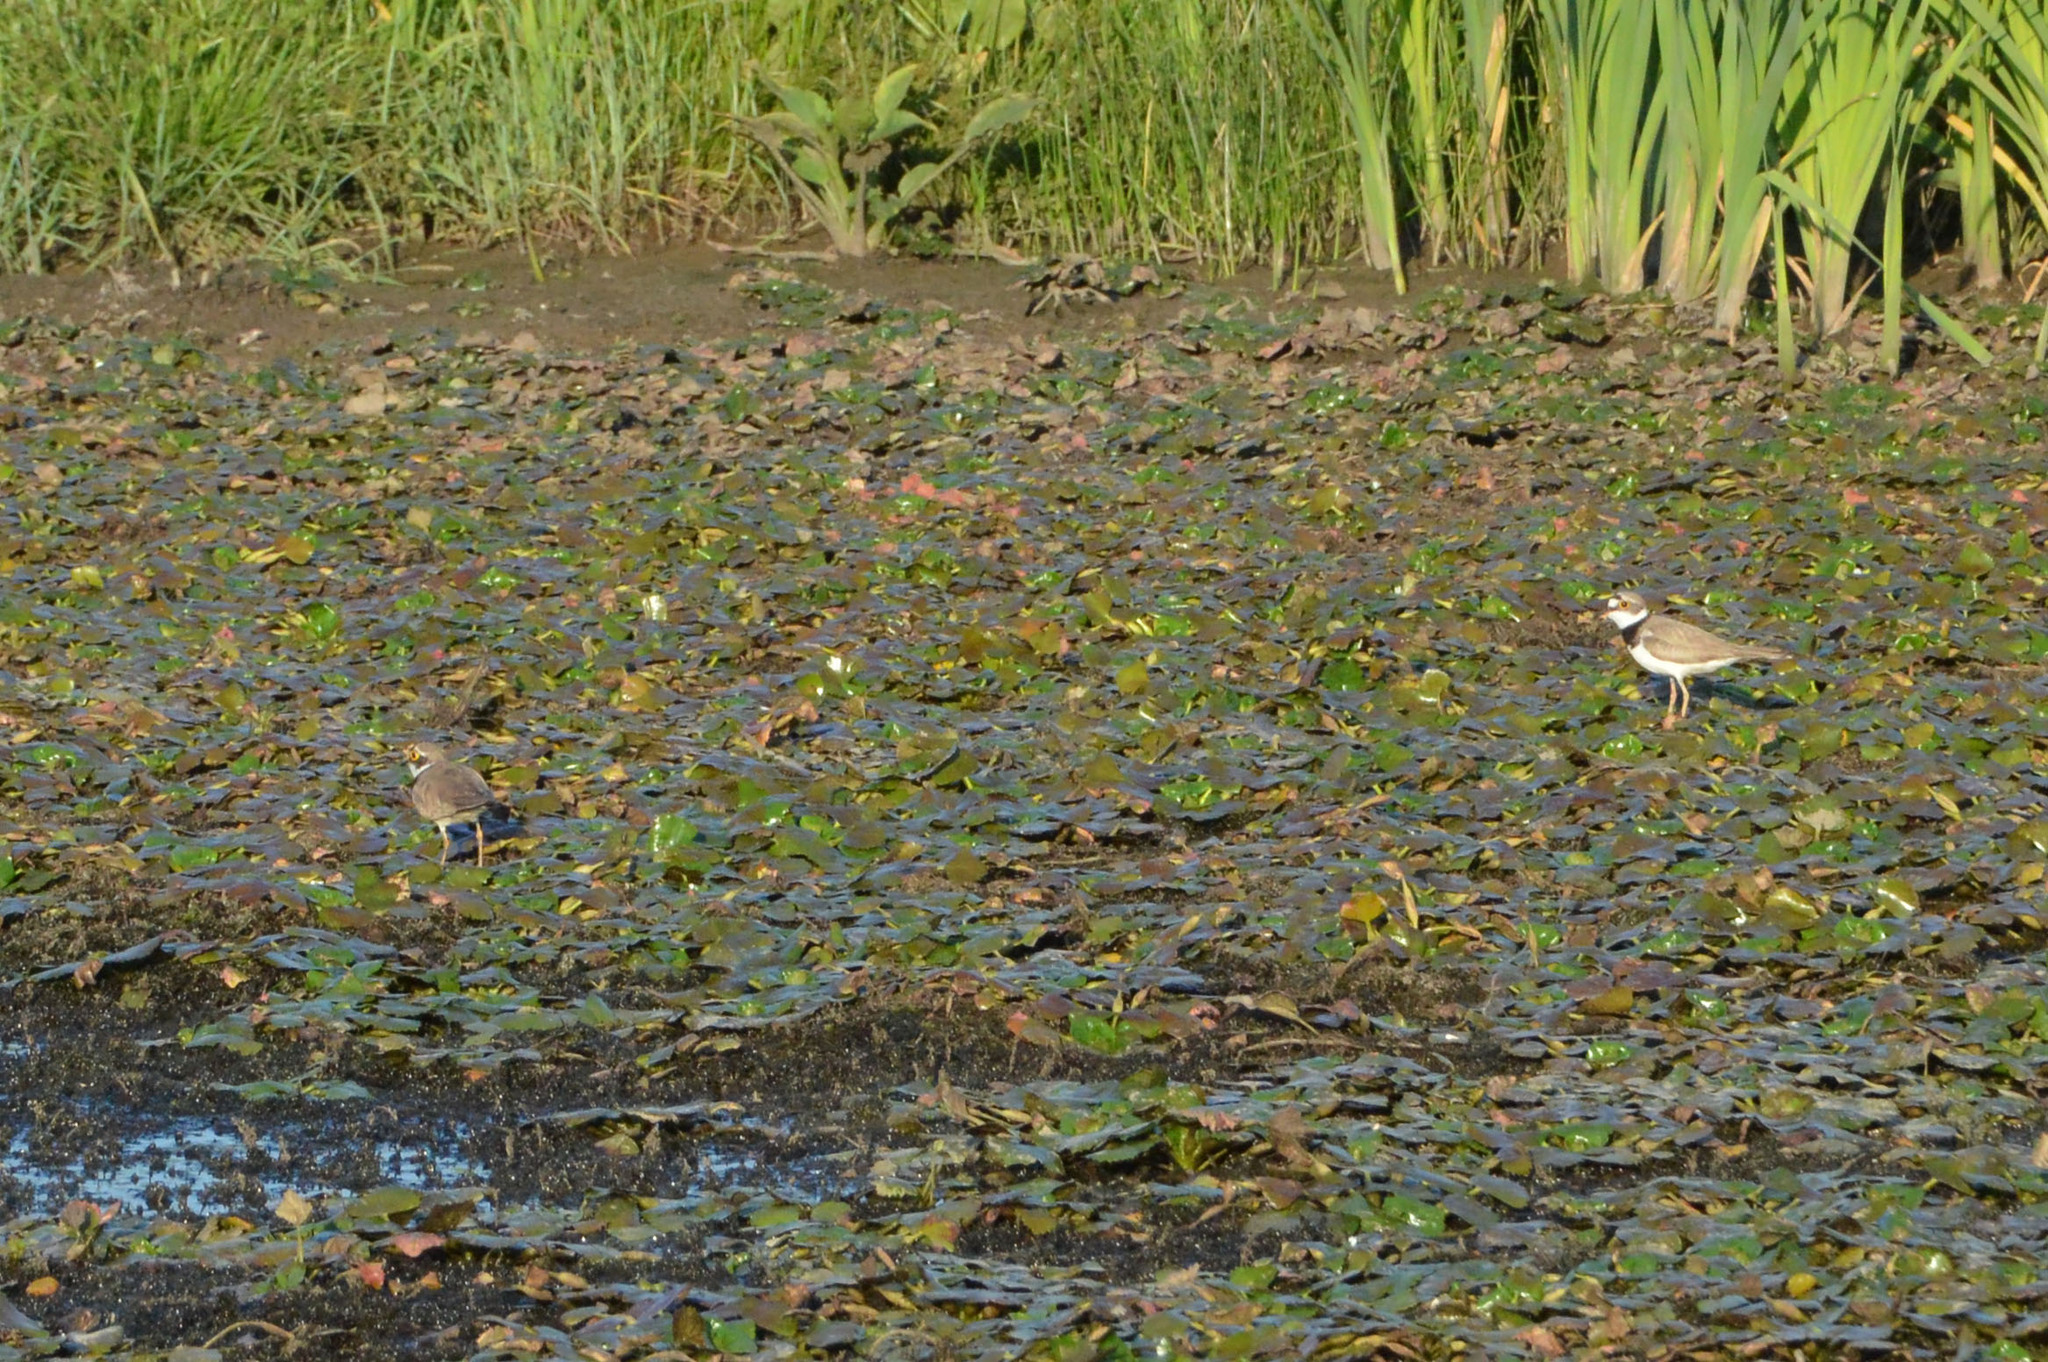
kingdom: Animalia
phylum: Chordata
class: Aves
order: Charadriiformes
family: Charadriidae
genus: Charadrius
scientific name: Charadrius dubius
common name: Little ringed plover
